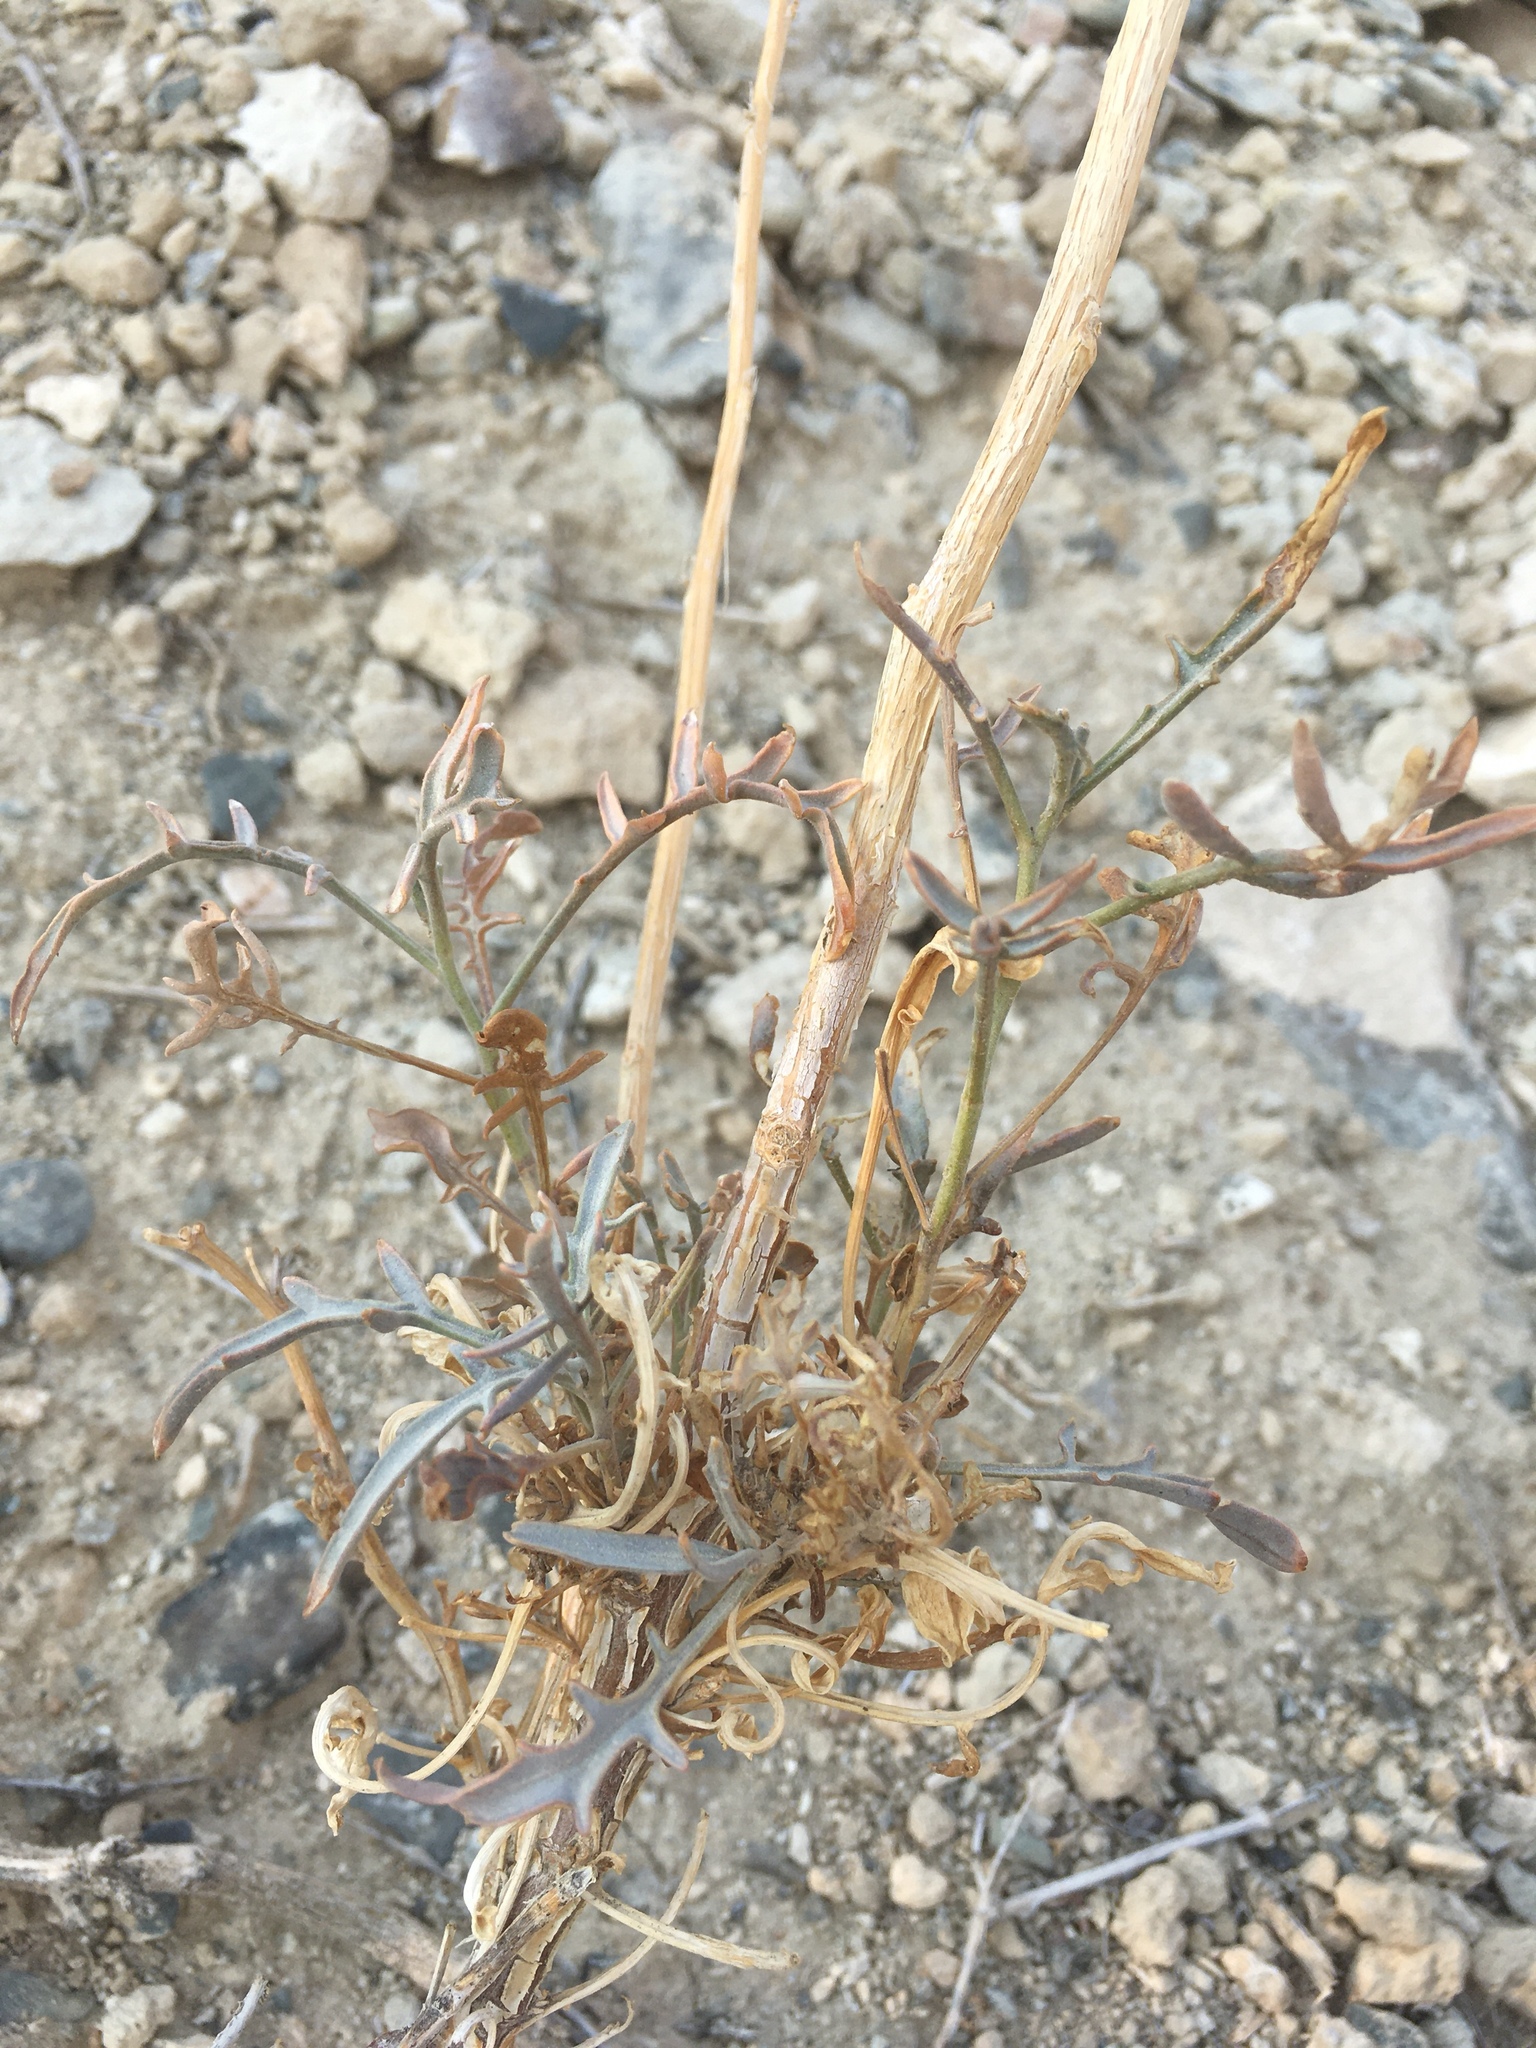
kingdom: Plantae
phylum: Tracheophyta
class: Magnoliopsida
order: Brassicales
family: Brassicaceae
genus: Stanleya
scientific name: Stanleya pinnata
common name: Prince's-plume
